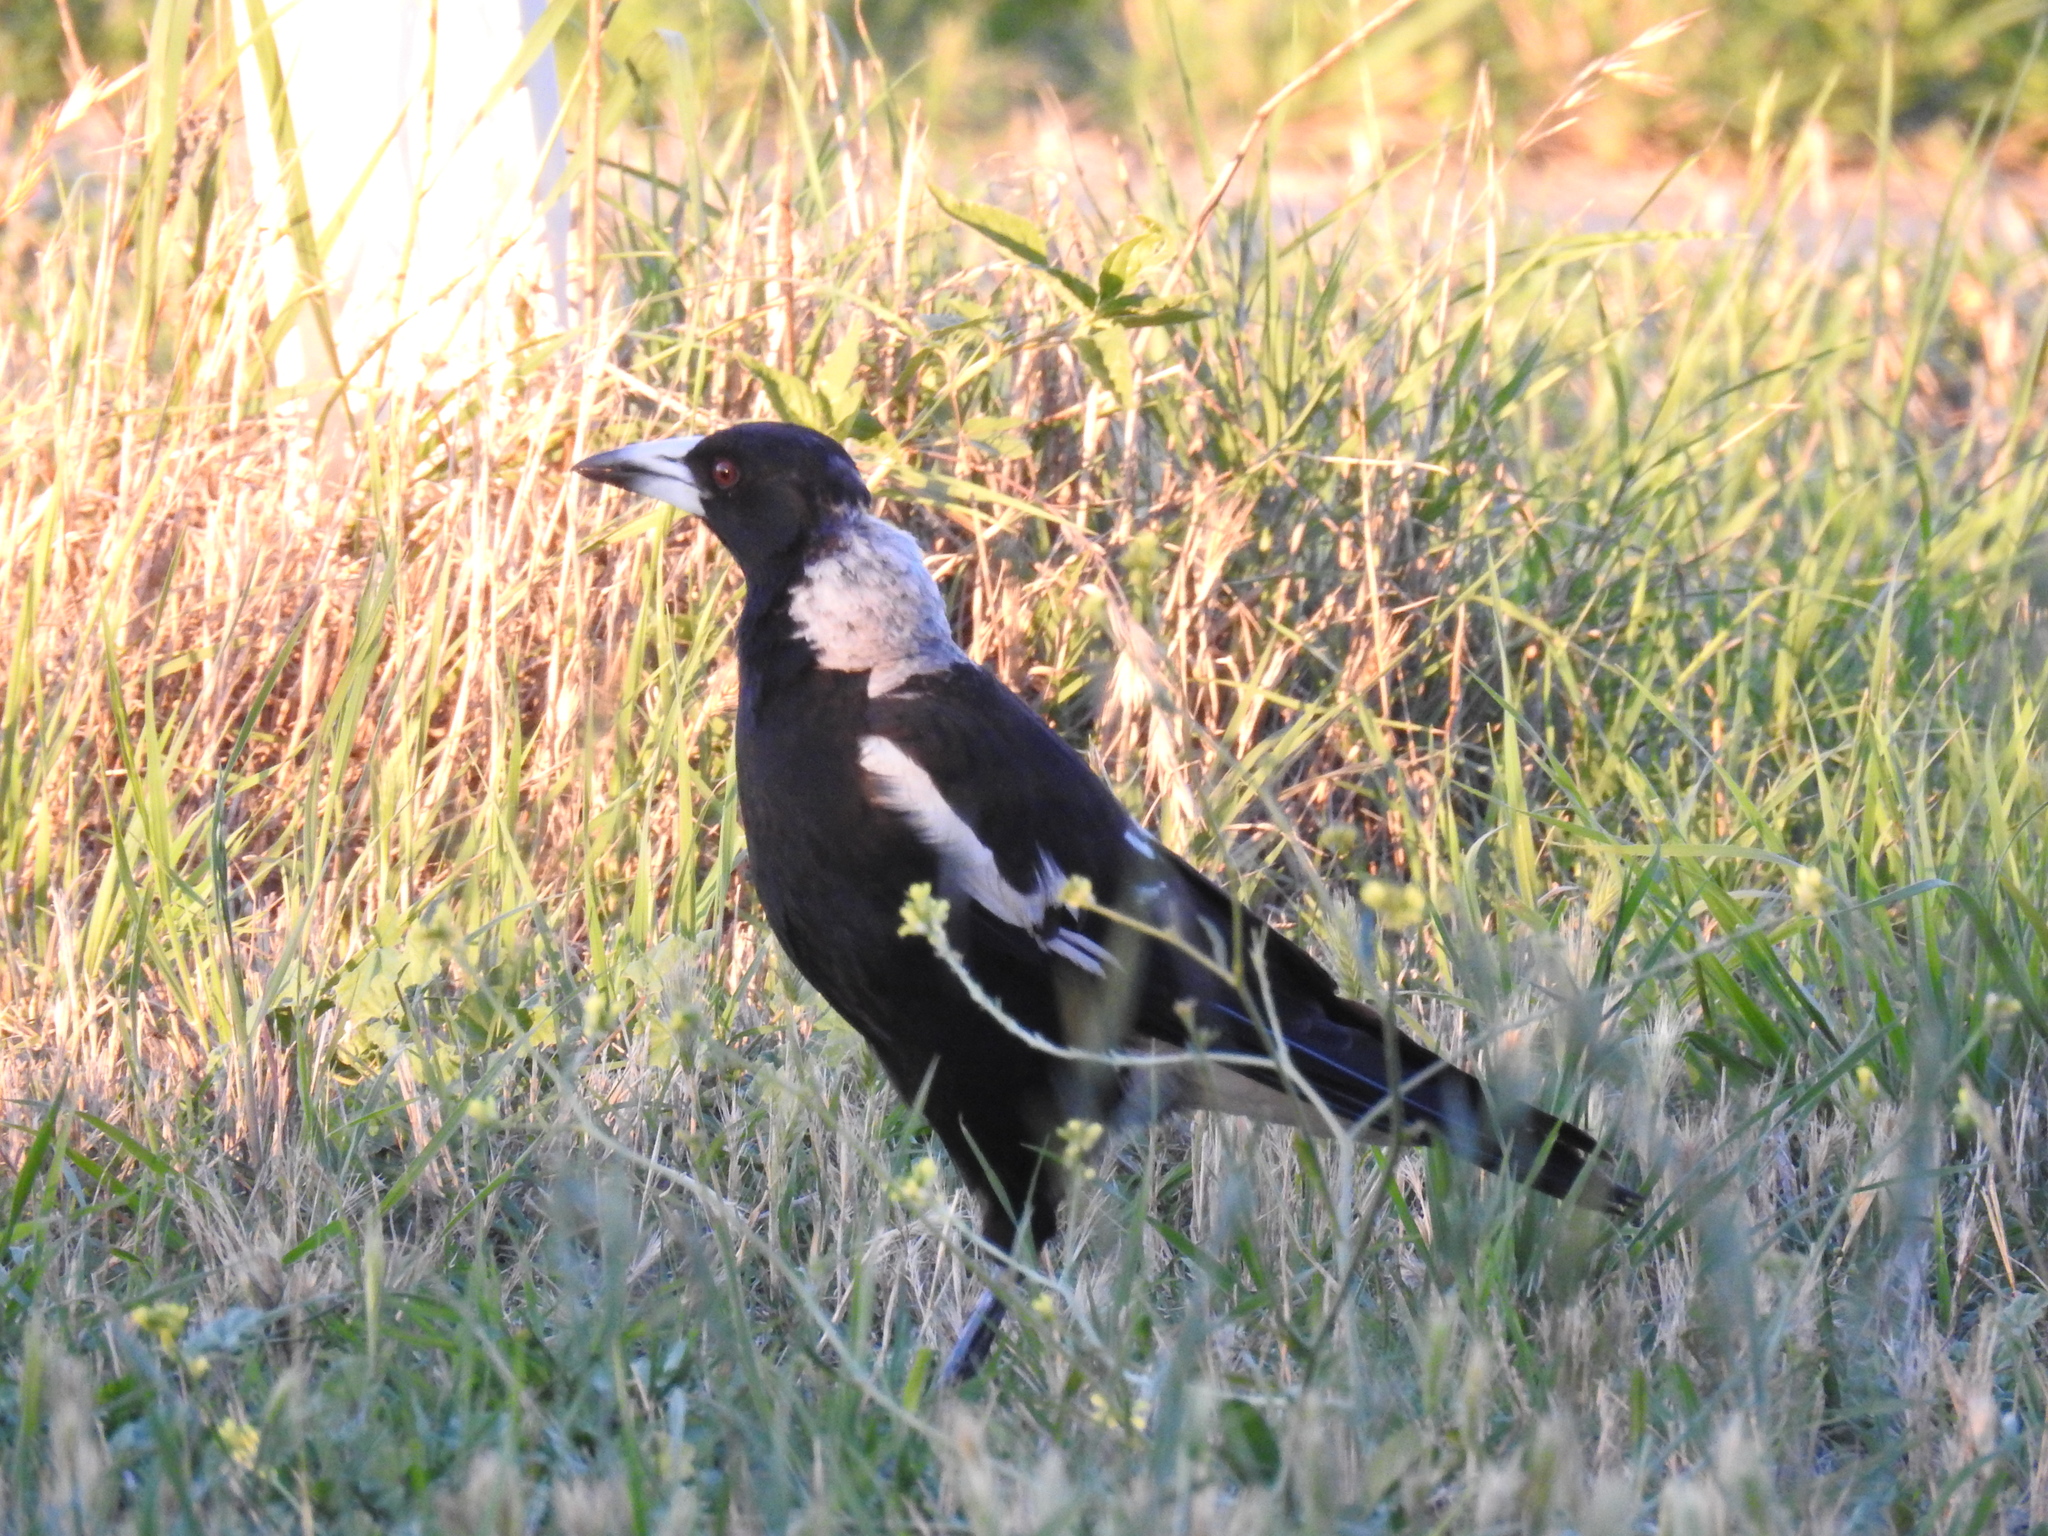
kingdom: Animalia
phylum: Chordata
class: Aves
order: Passeriformes
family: Cracticidae
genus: Gymnorhina
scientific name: Gymnorhina tibicen
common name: Australian magpie
